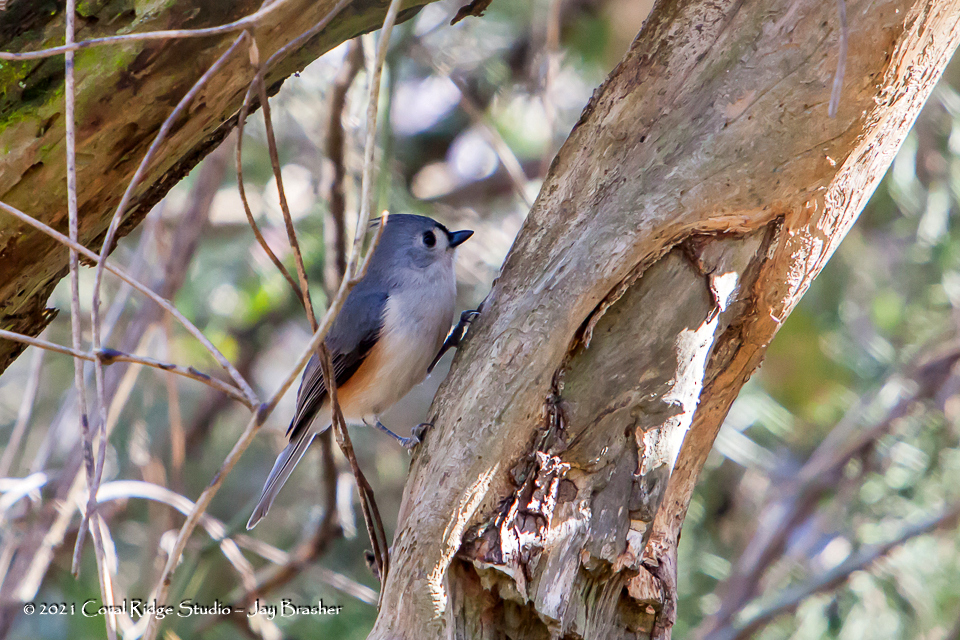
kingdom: Animalia
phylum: Chordata
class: Aves
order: Passeriformes
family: Paridae
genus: Baeolophus
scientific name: Baeolophus bicolor
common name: Tufted titmouse
